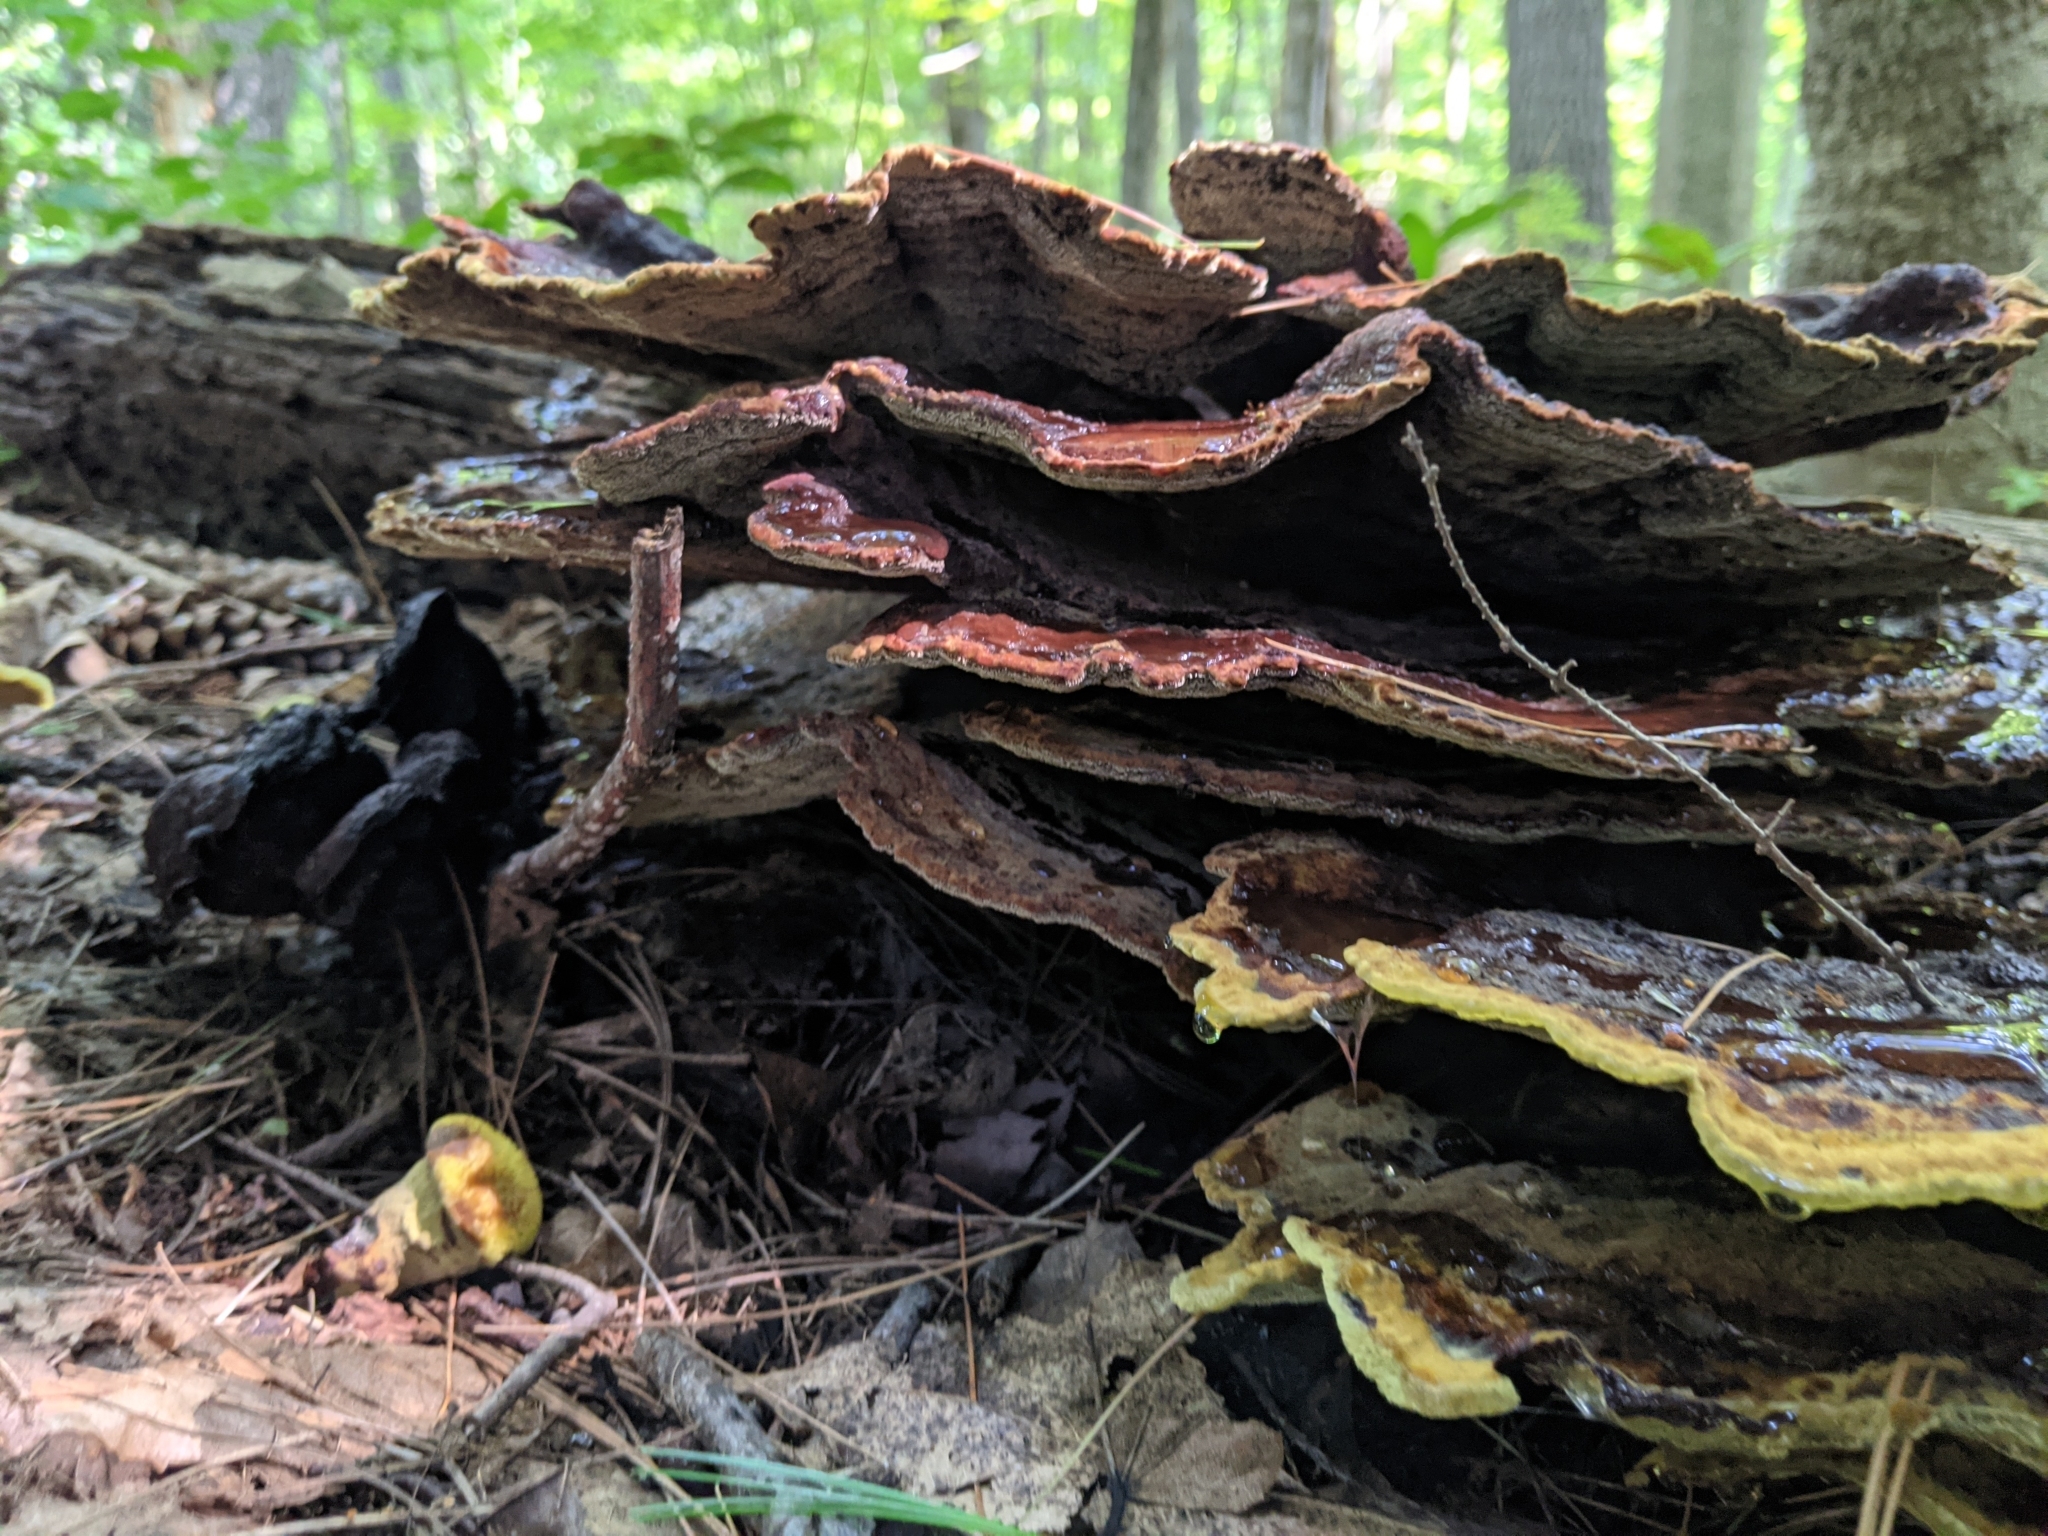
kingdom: Fungi
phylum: Basidiomycota
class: Agaricomycetes
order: Polyporales
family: Laetiporaceae
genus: Phaeolus
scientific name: Phaeolus schweinitzii
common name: Dyer's mazegill
